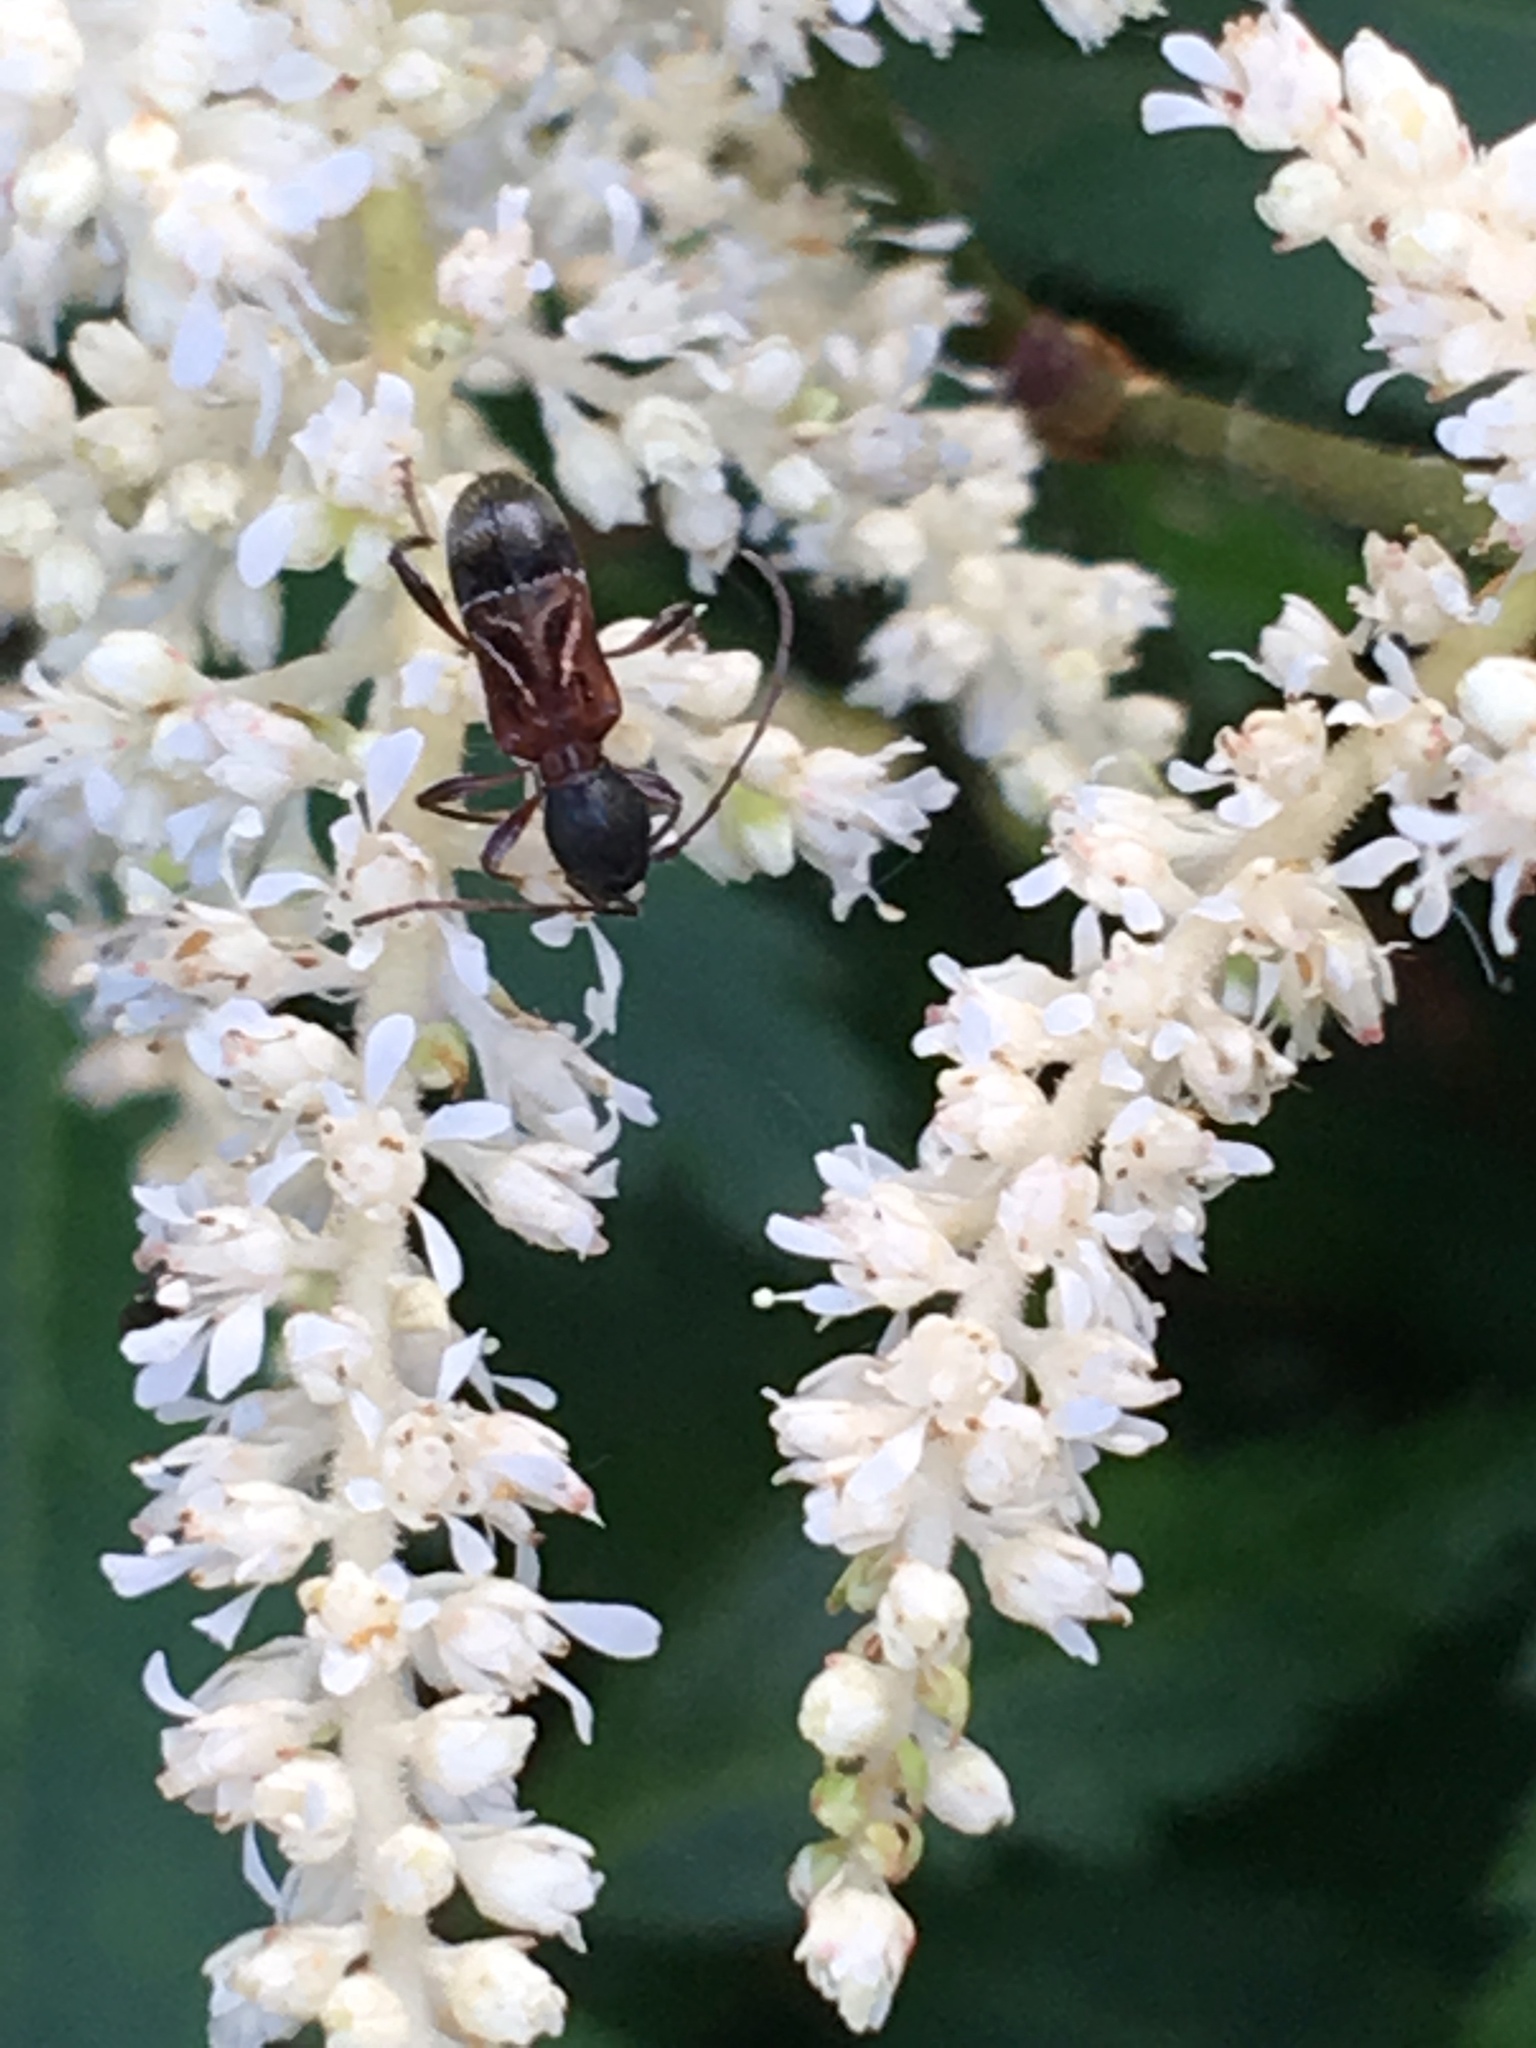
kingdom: Animalia
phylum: Arthropoda
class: Insecta
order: Coleoptera
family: Cerambycidae
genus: Cyrtophorus
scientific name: Cyrtophorus verrucosus
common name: Ant-like longhorn beetle
